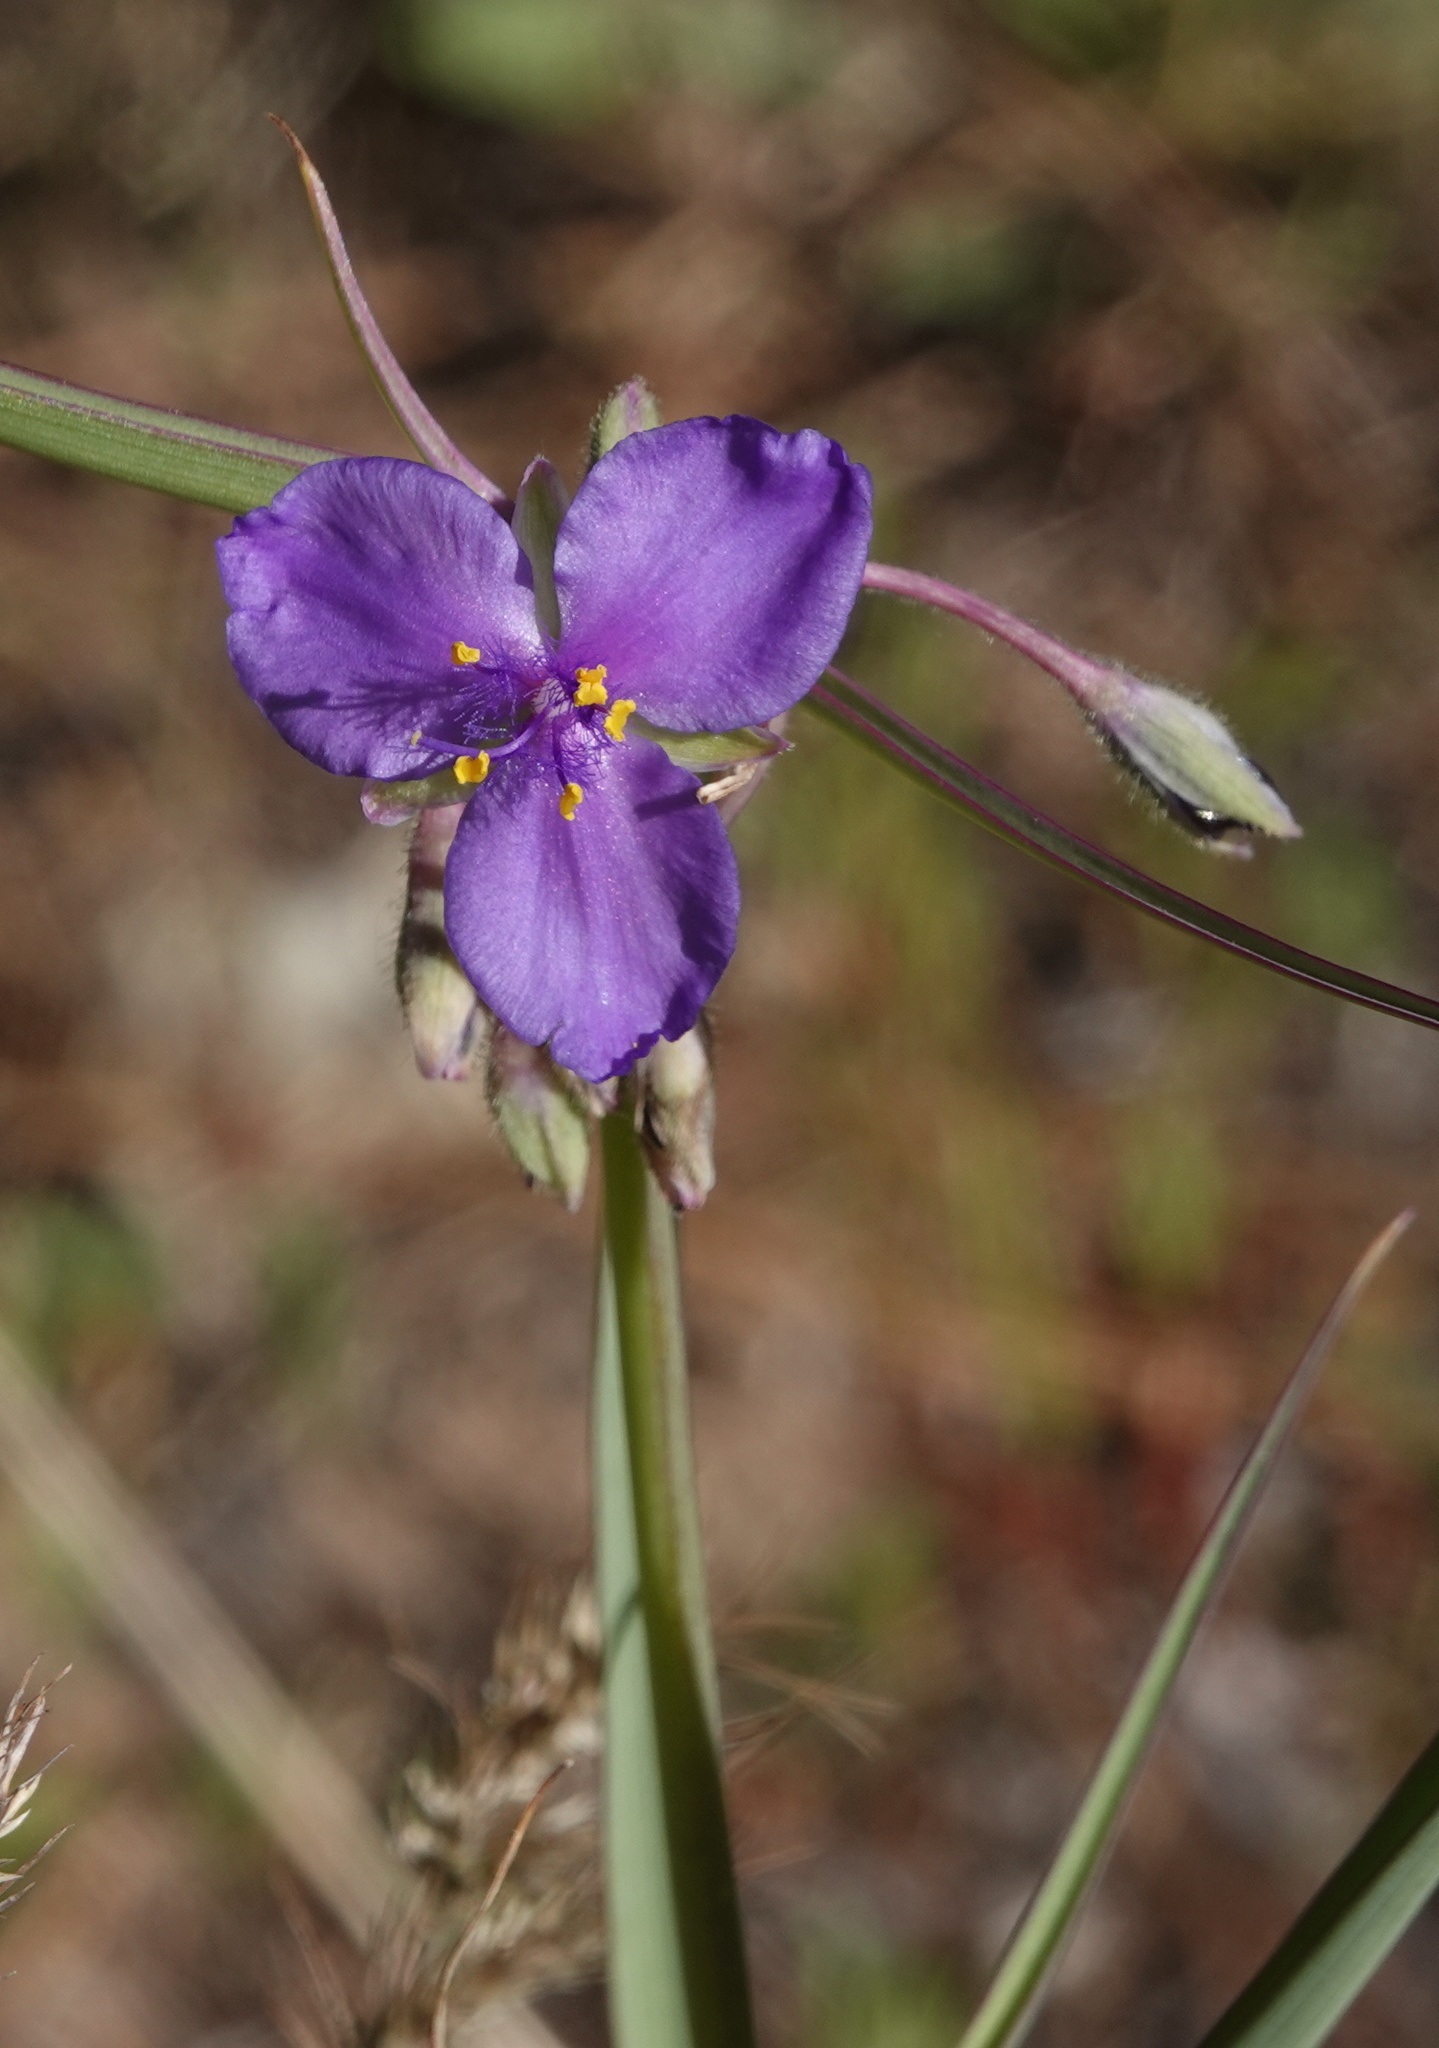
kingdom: Plantae
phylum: Tracheophyta
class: Liliopsida
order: Commelinales
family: Commelinaceae
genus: Tradescantia
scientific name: Tradescantia occidentalis
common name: Prairie spiderwort
